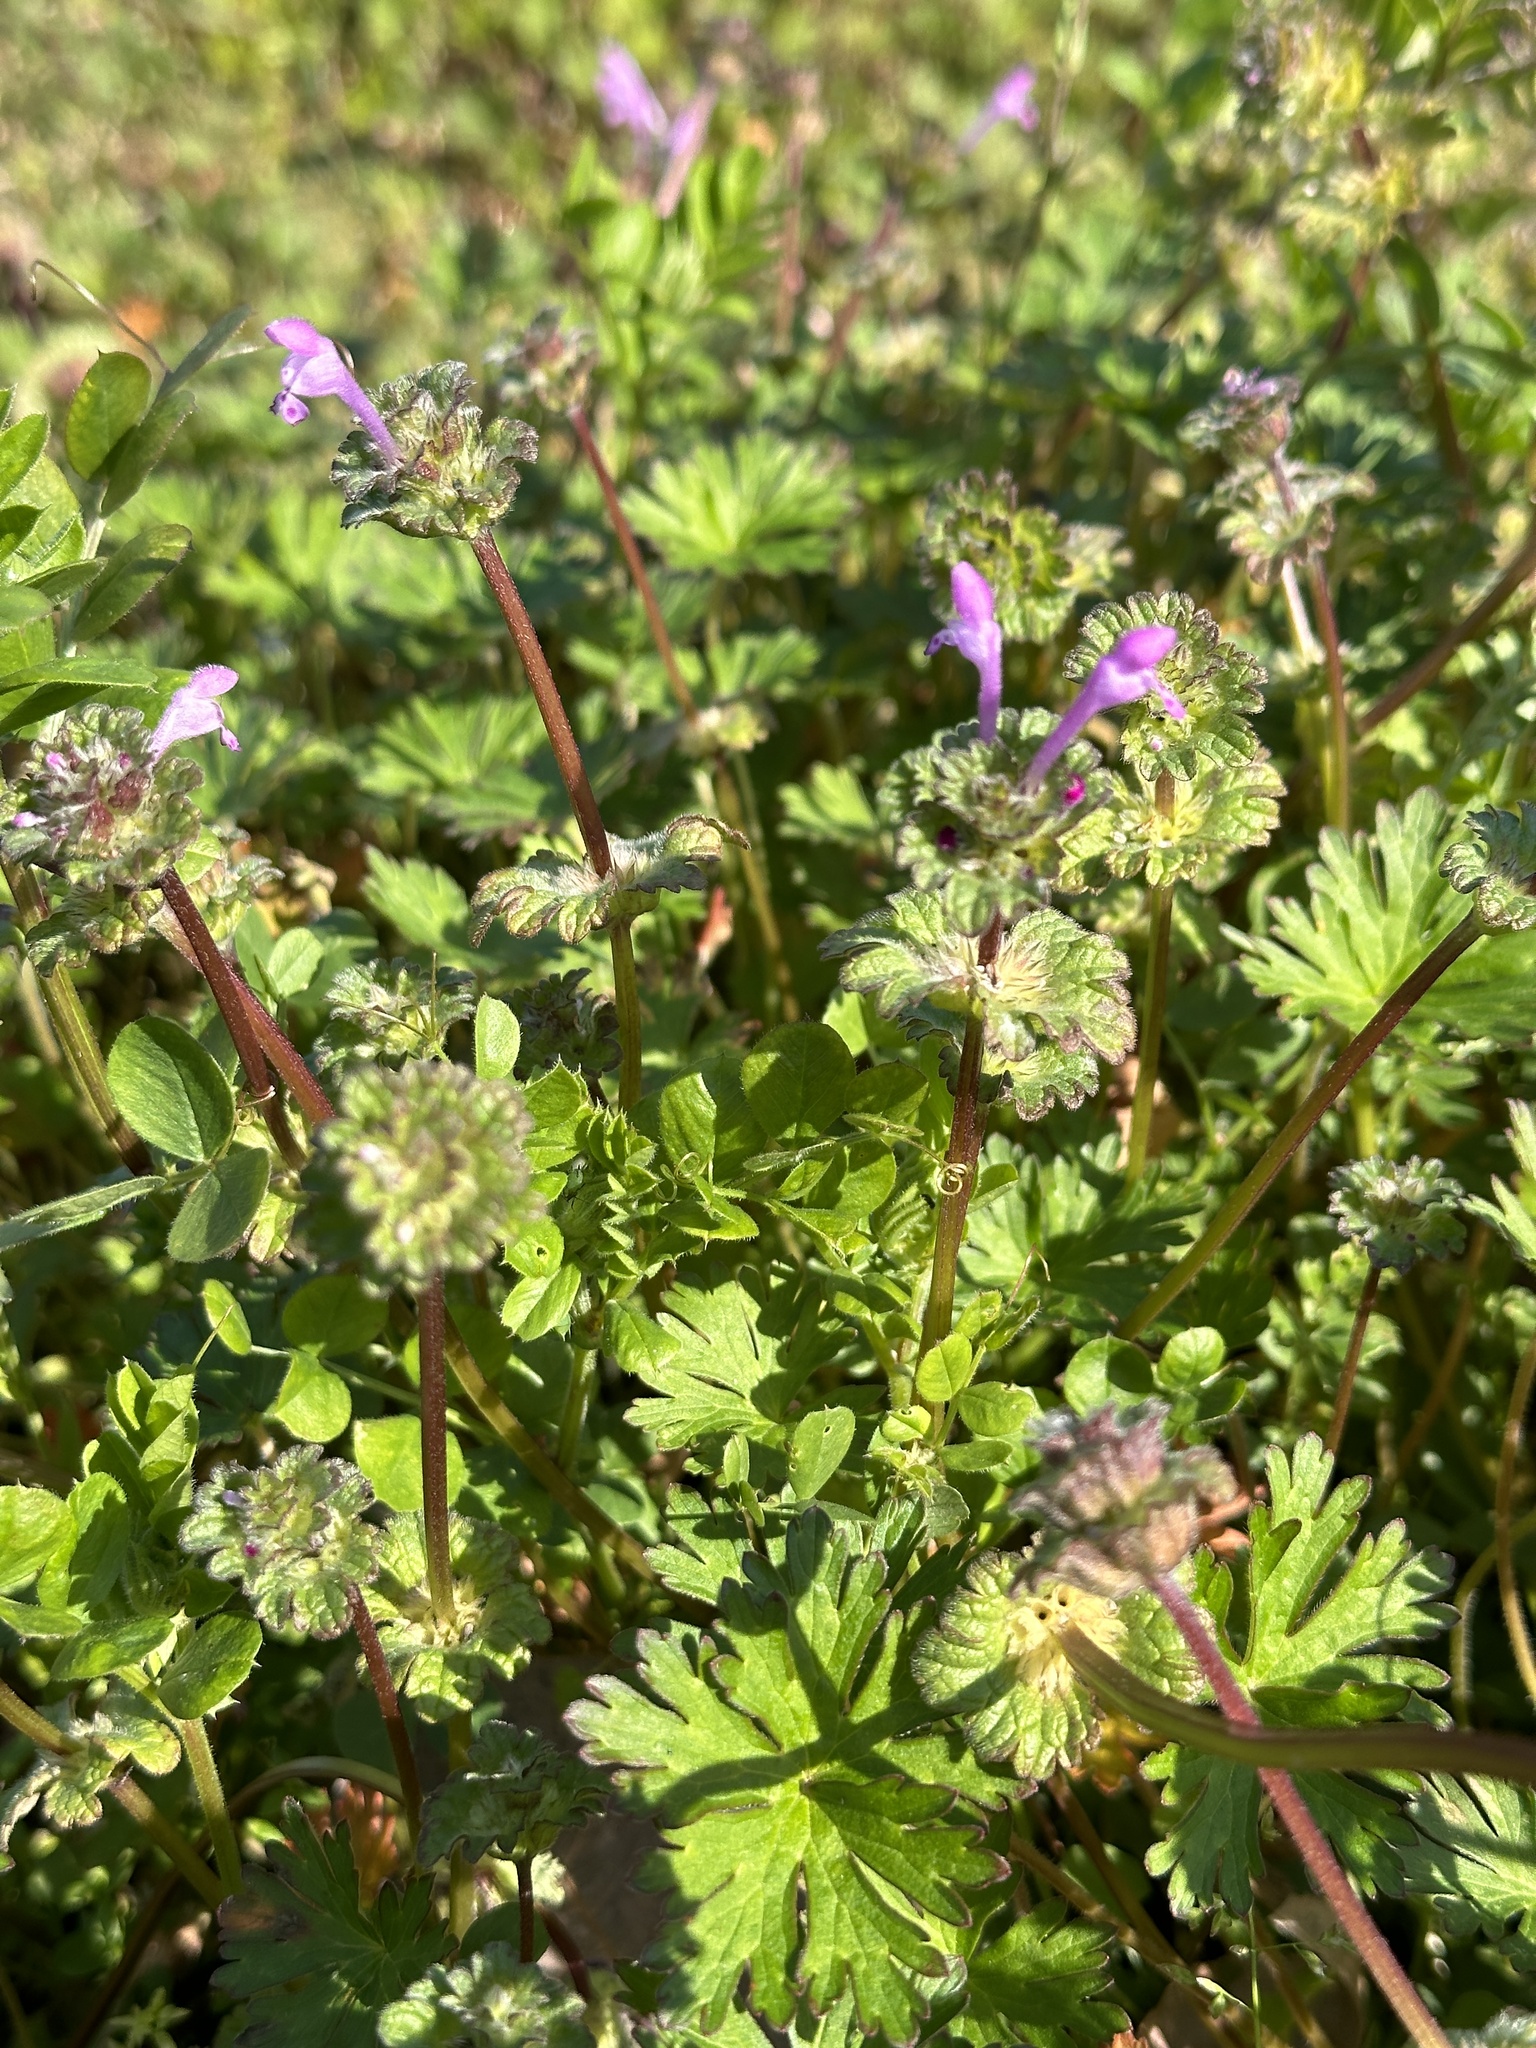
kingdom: Plantae
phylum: Tracheophyta
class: Magnoliopsida
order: Lamiales
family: Lamiaceae
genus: Lamium
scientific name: Lamium amplexicaule
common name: Henbit dead-nettle
